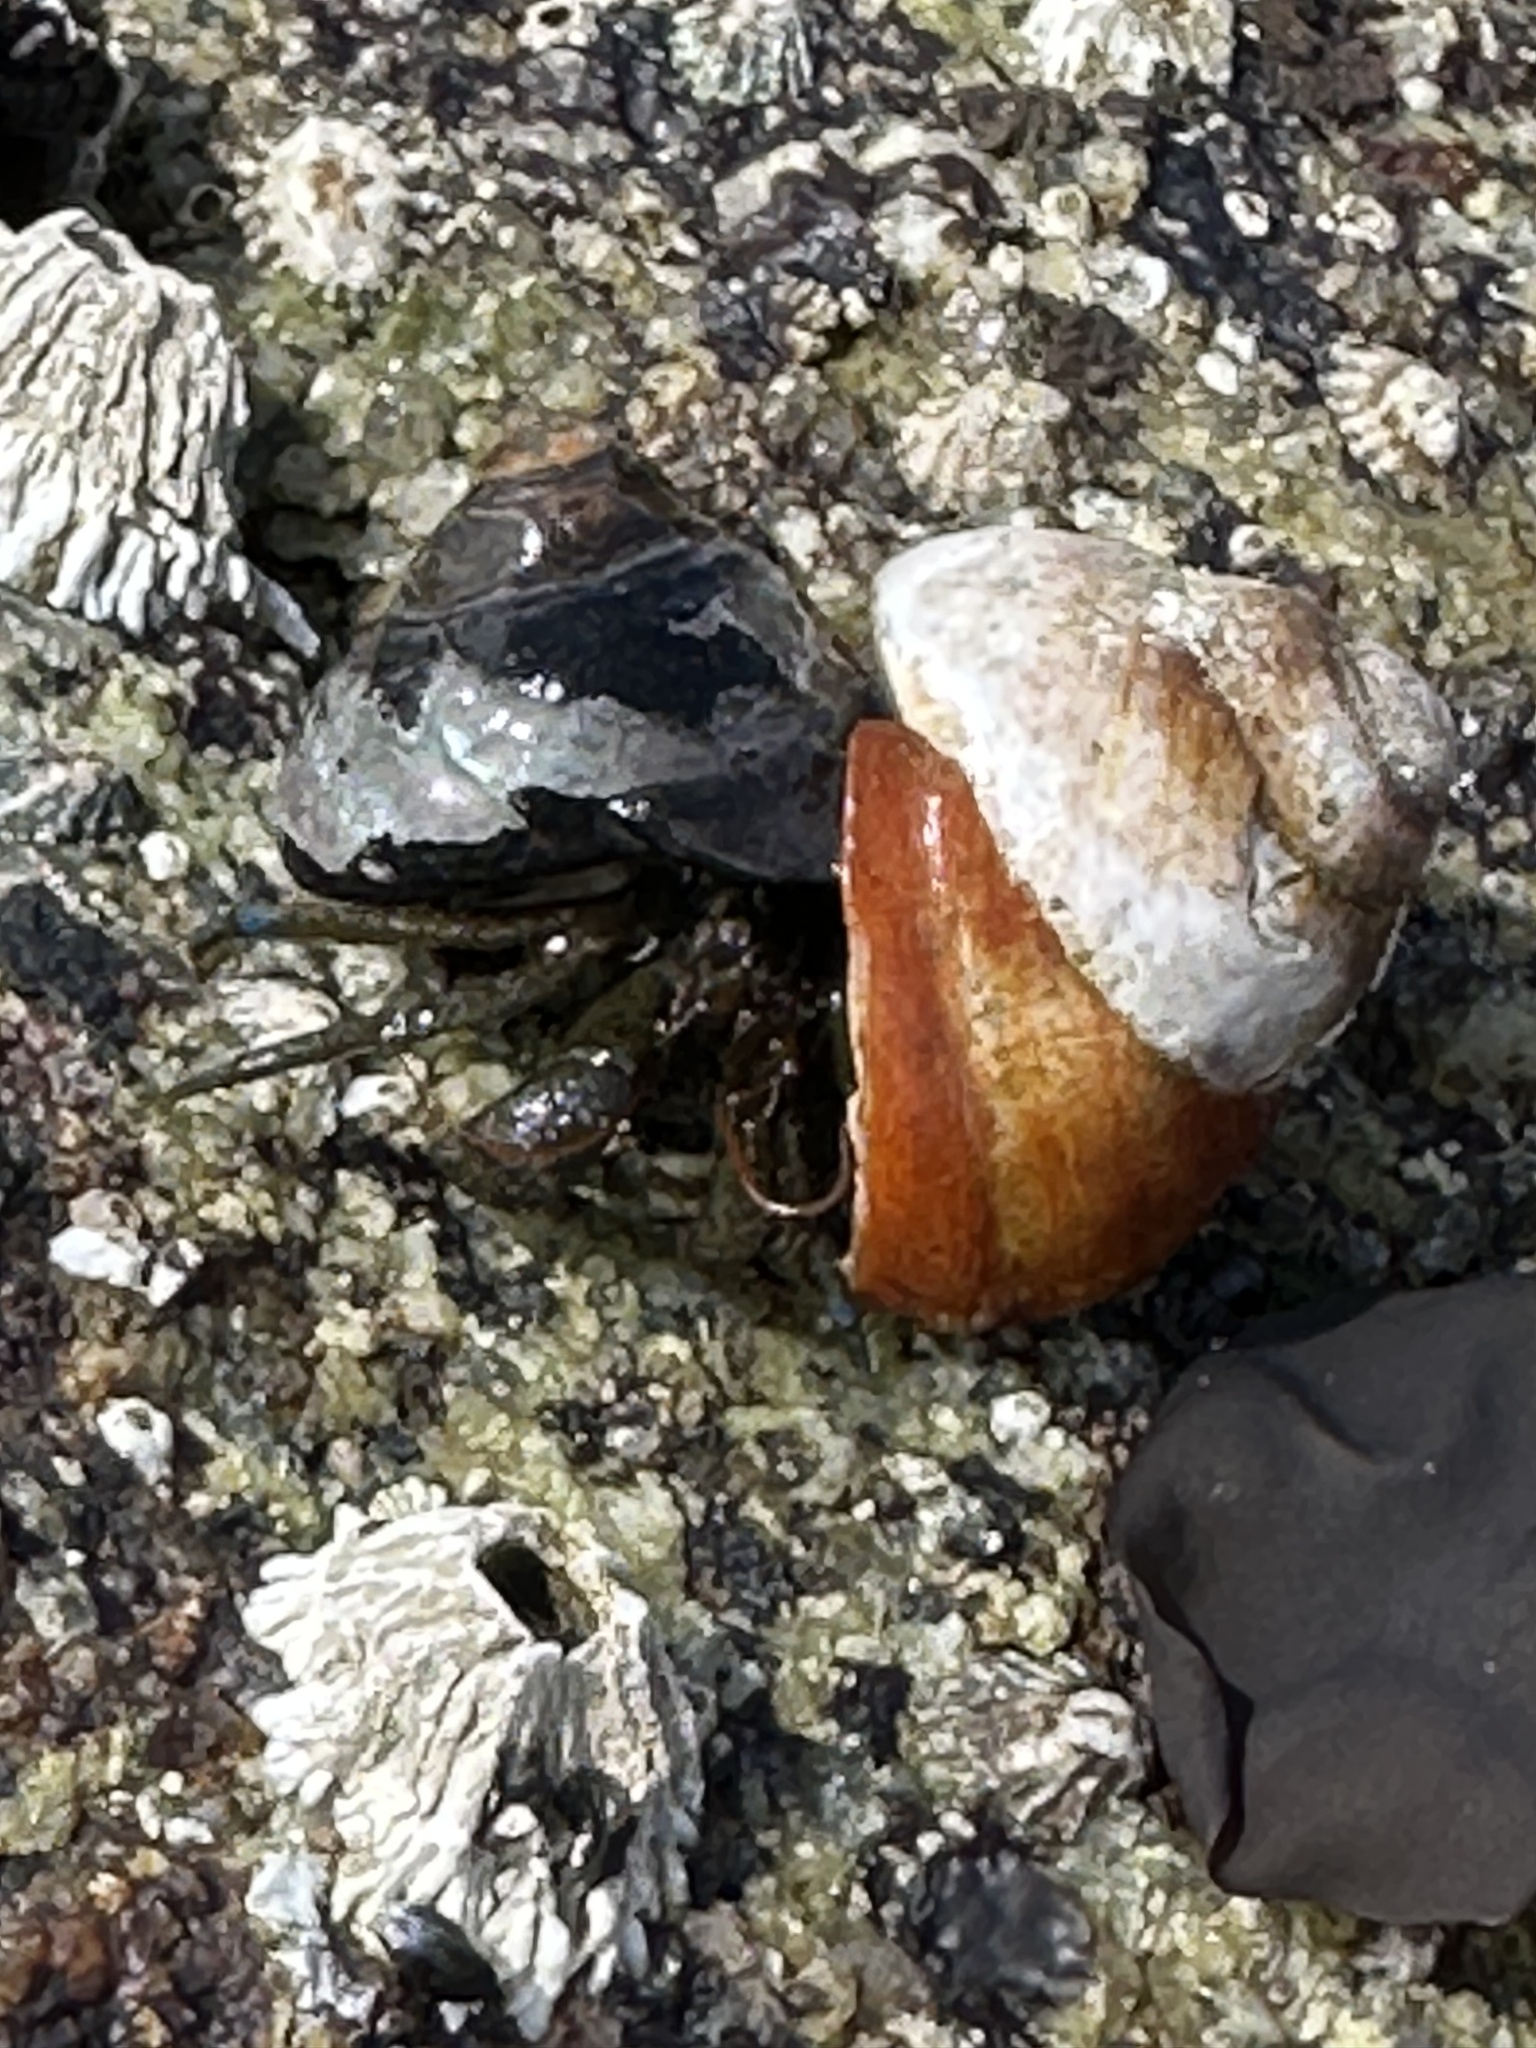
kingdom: Animalia
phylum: Arthropoda
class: Malacostraca
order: Decapoda
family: Paguridae
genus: Pagurus
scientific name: Pagurus samuelis
